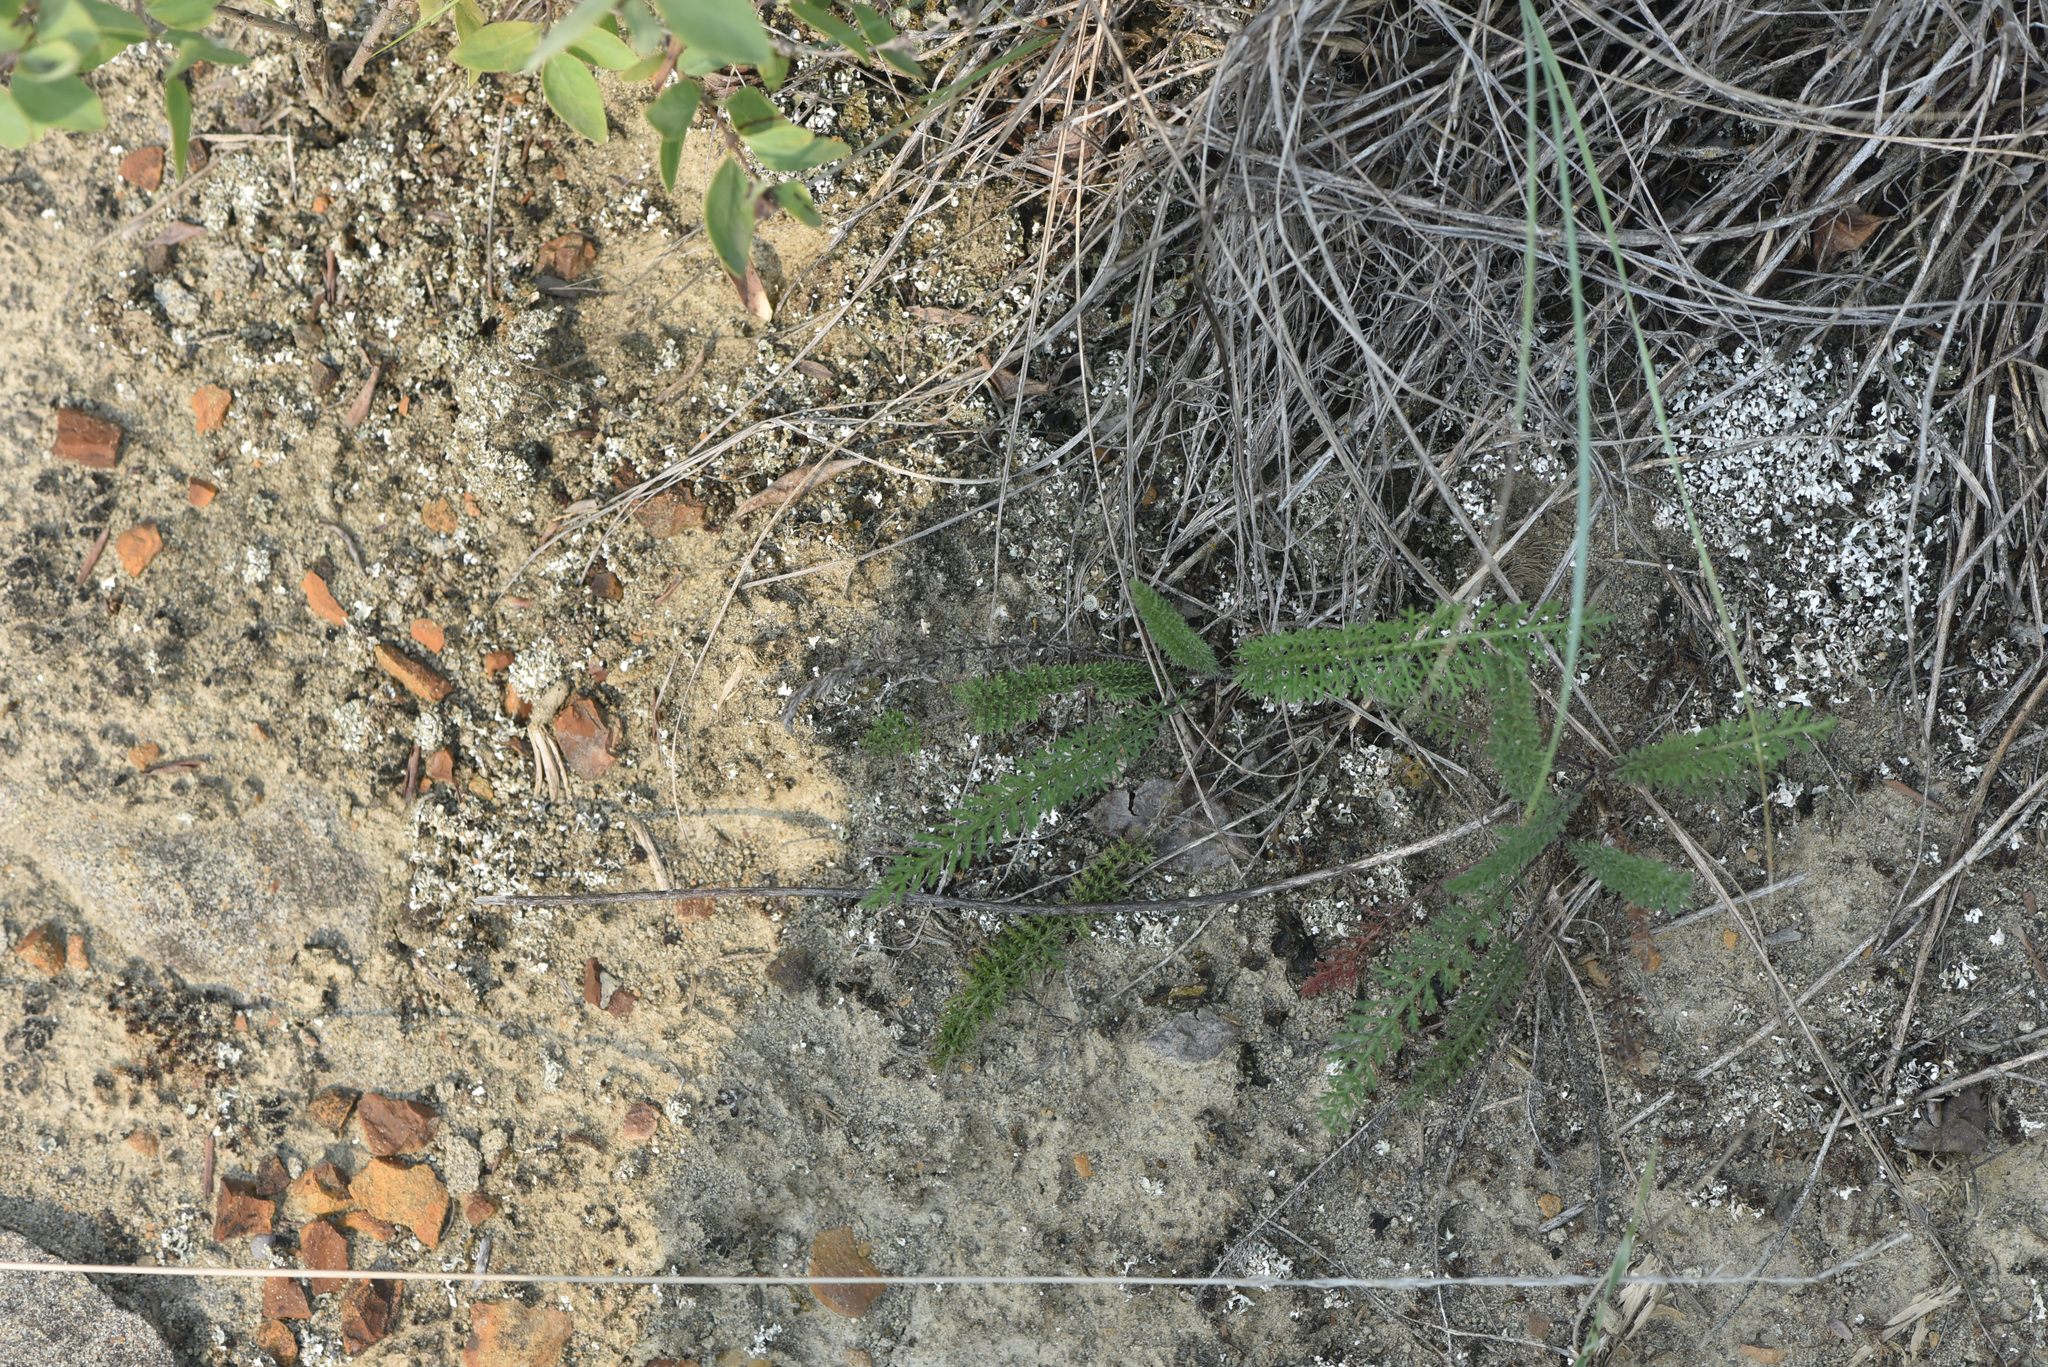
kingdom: Plantae
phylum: Tracheophyta
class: Magnoliopsida
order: Asterales
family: Asteraceae
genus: Achillea
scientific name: Achillea millefolium
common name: Yarrow
